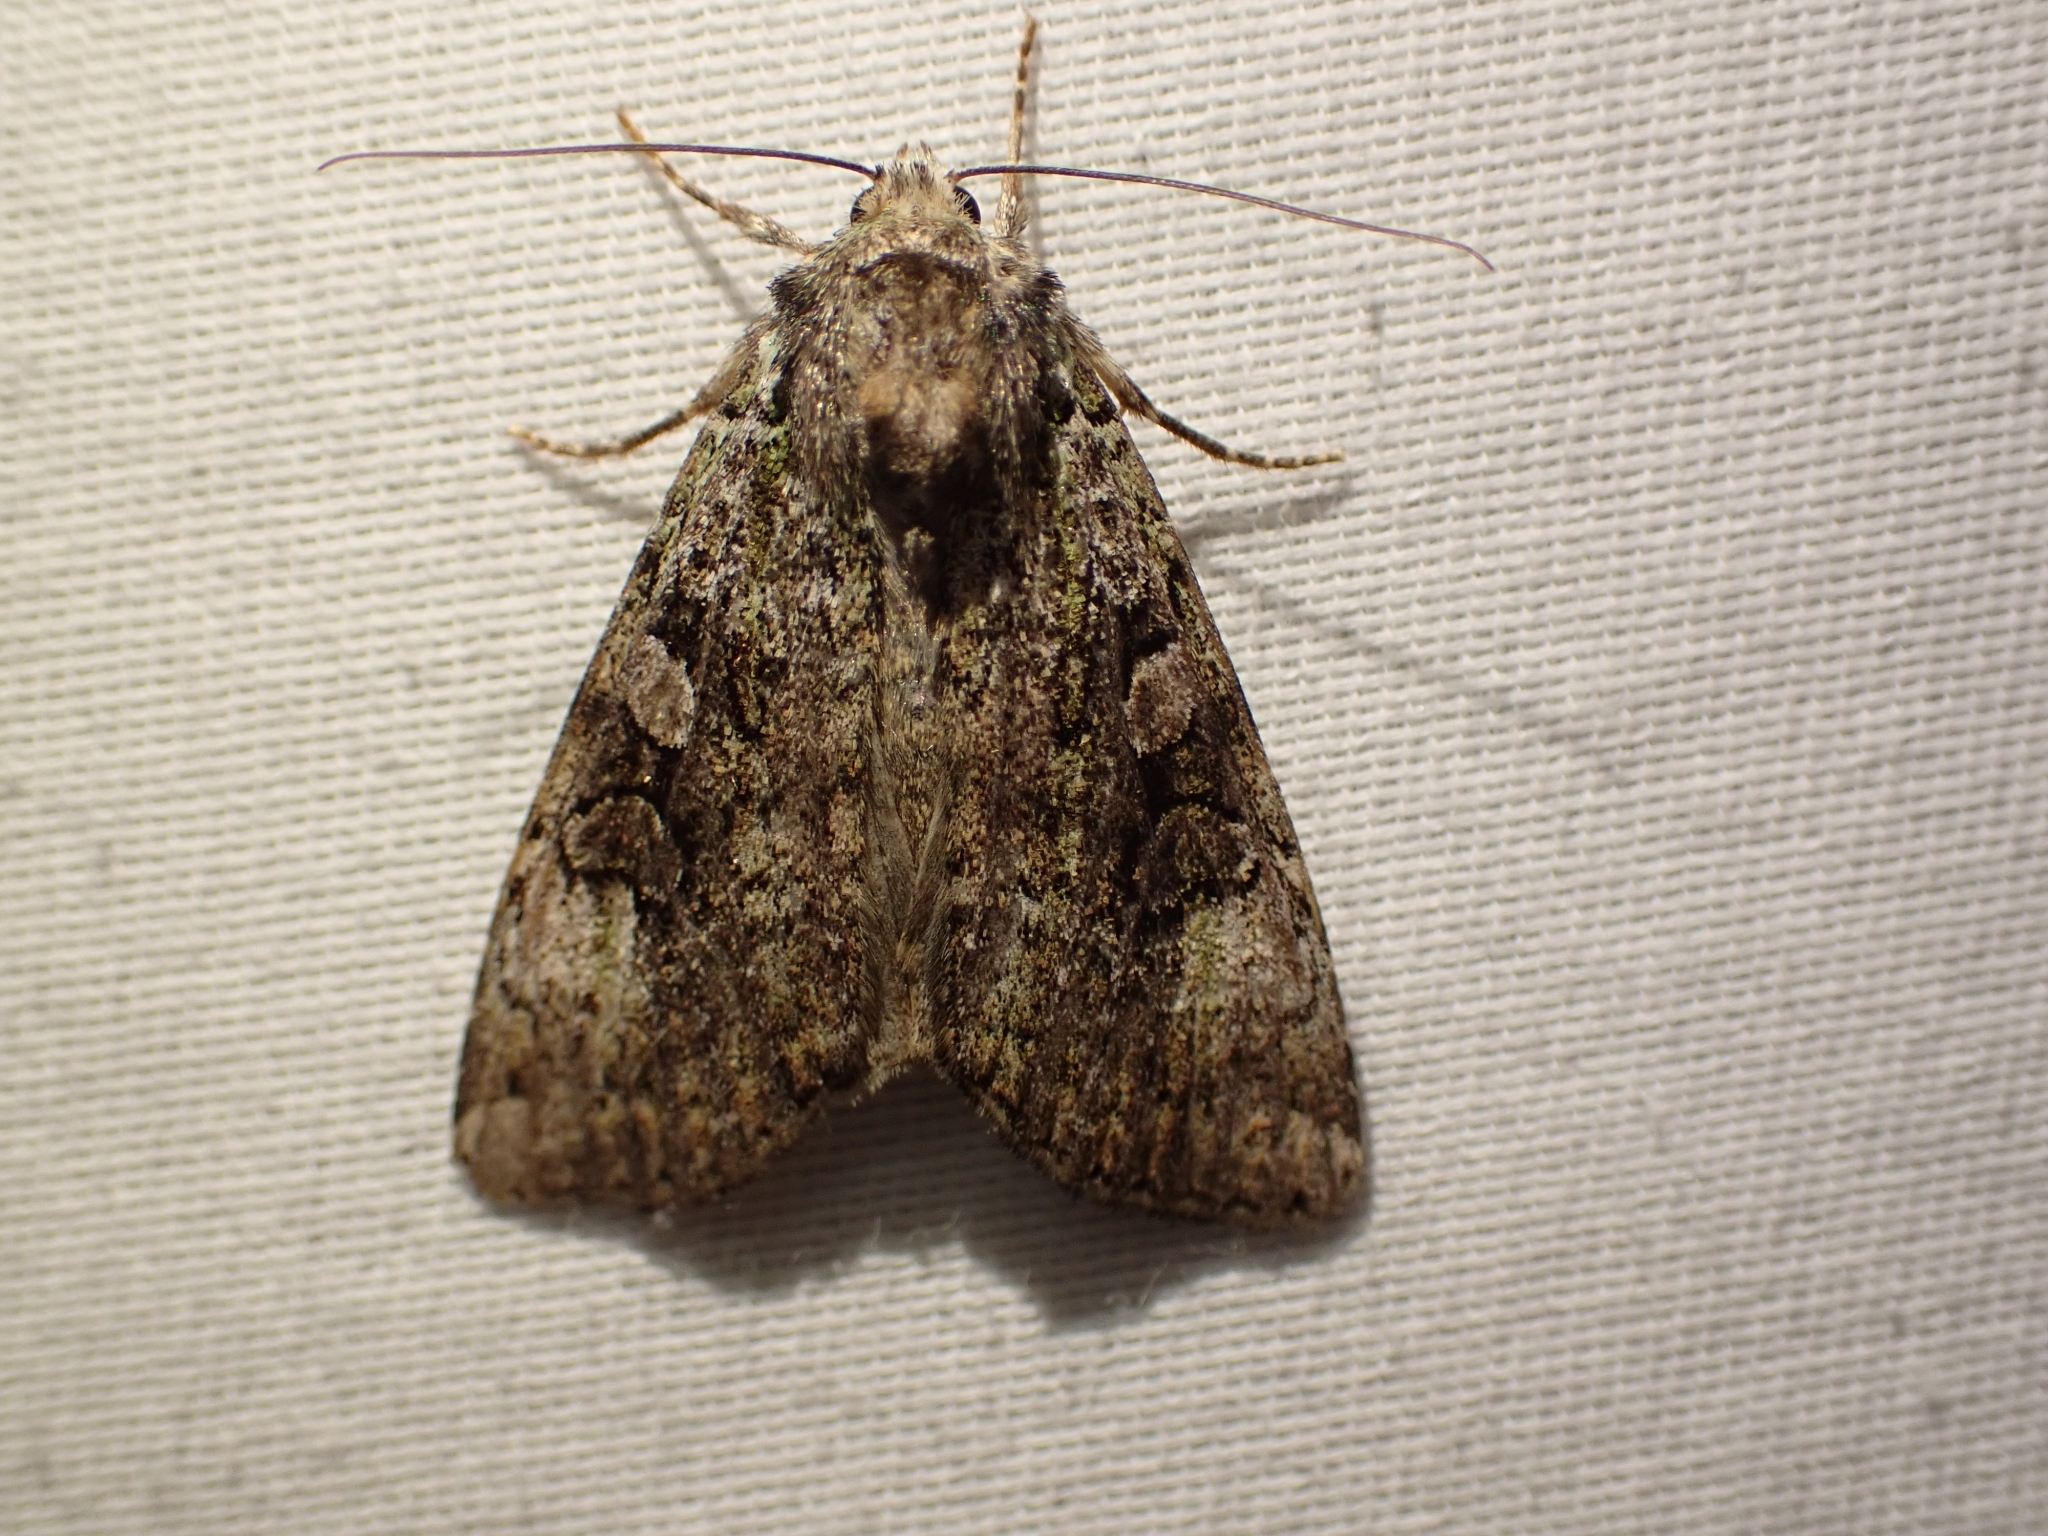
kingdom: Animalia
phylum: Arthropoda
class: Insecta
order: Lepidoptera
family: Noctuidae
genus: Anaplectoides
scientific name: Anaplectoides prasina
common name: Green arches
